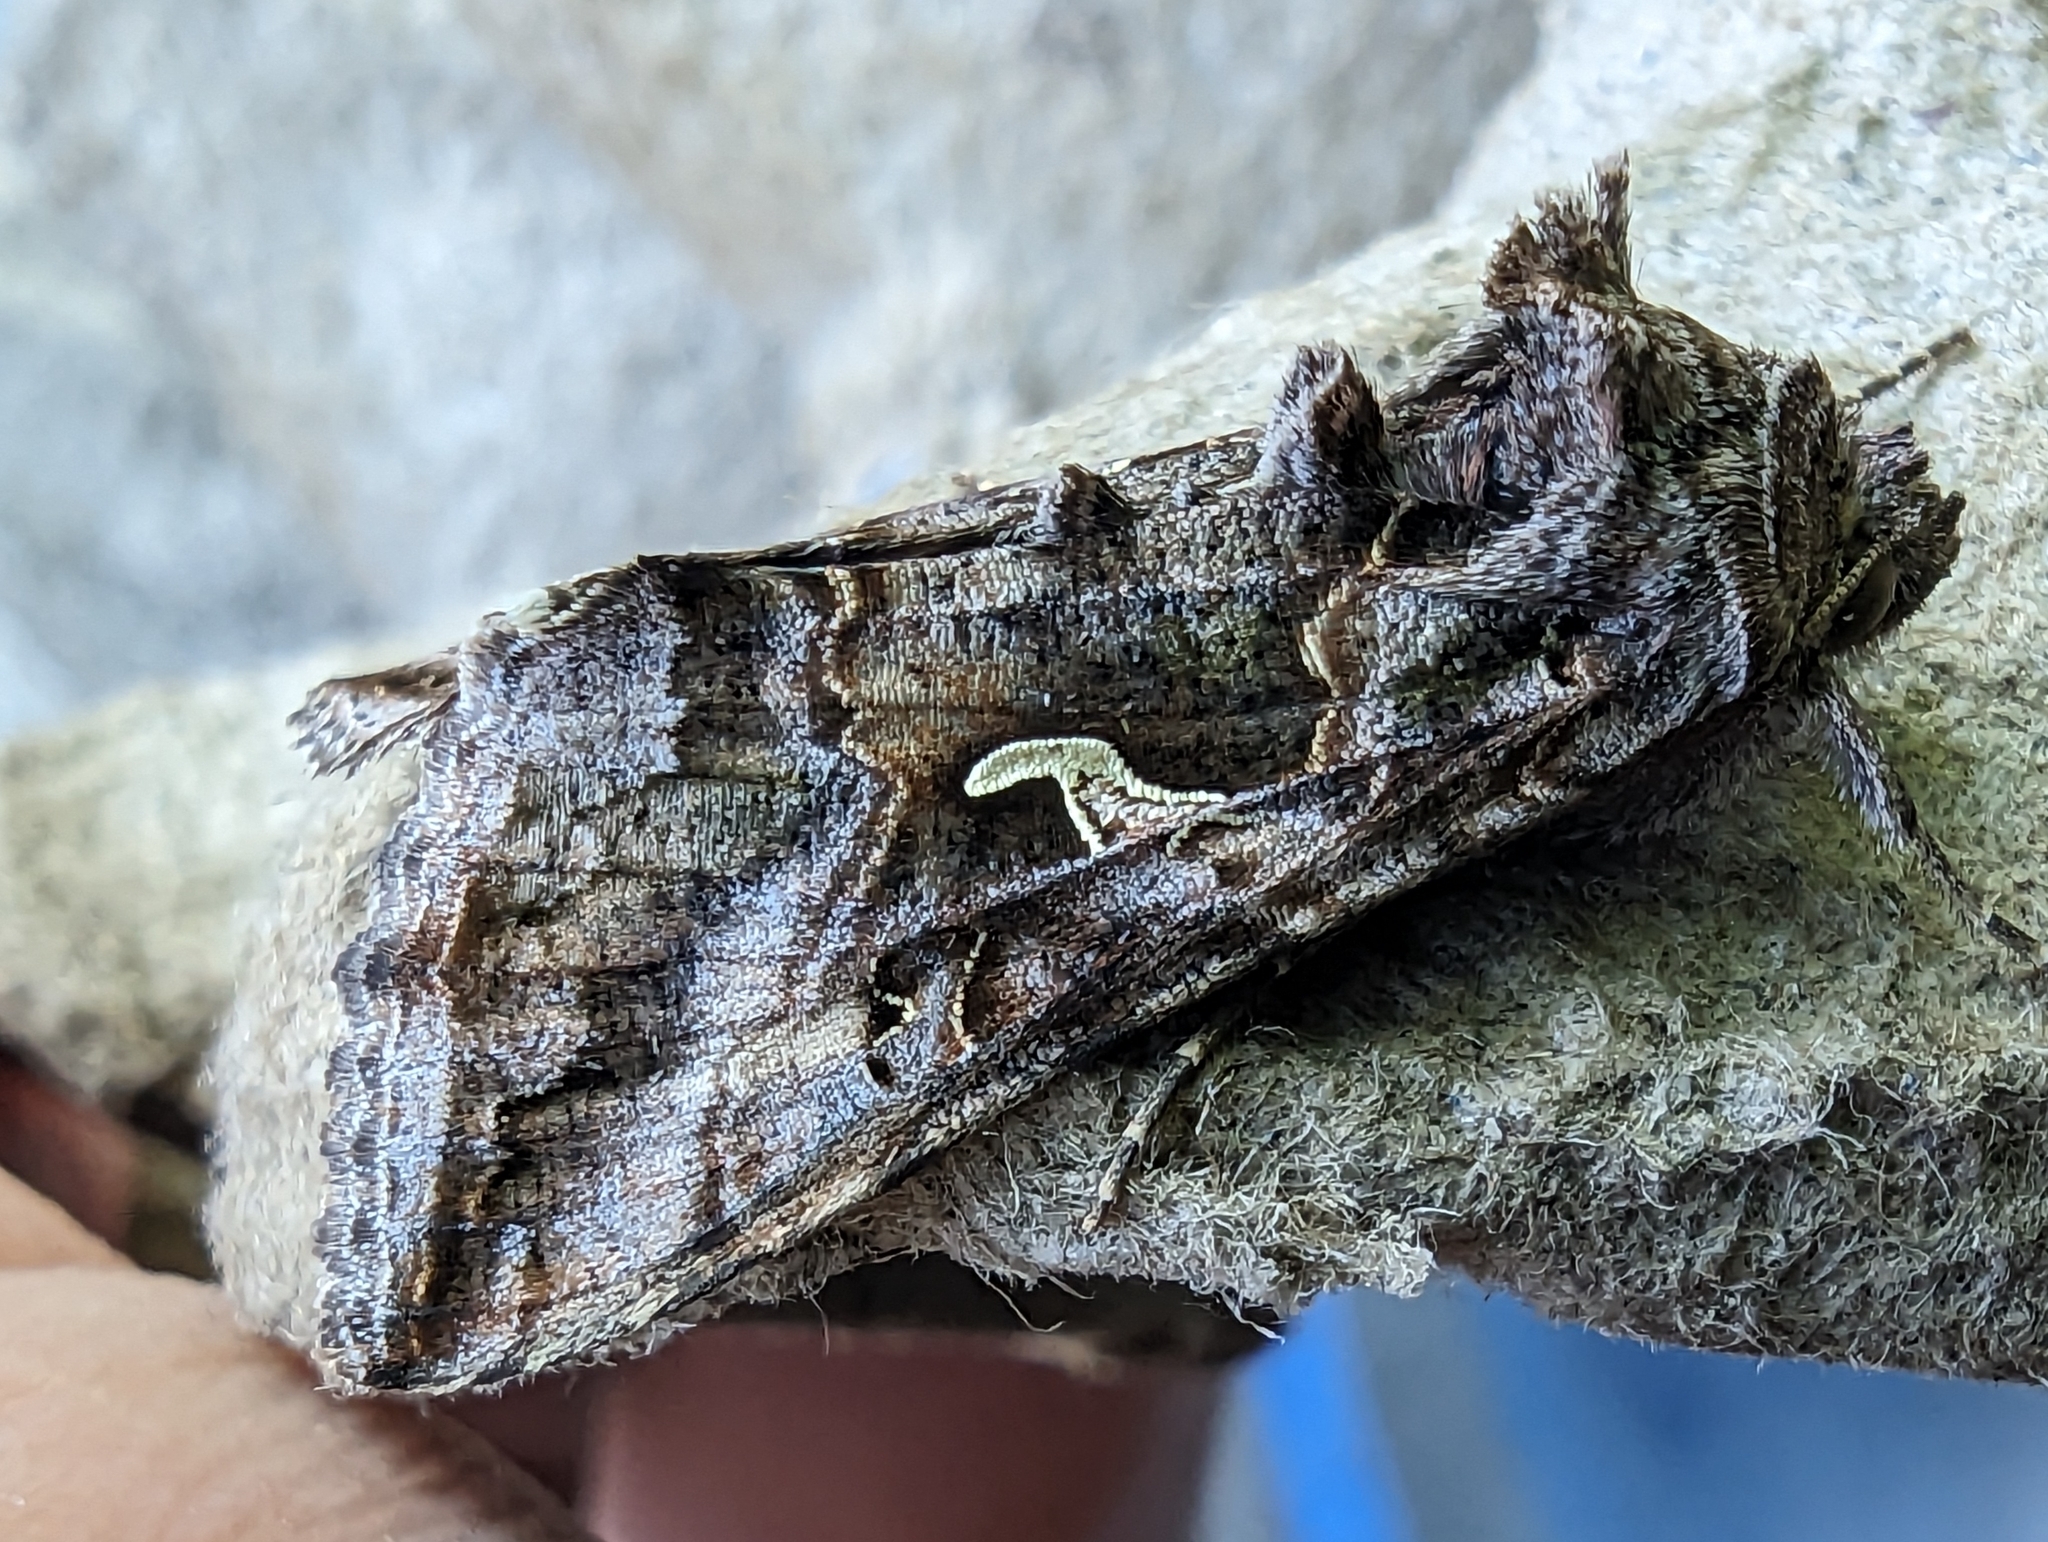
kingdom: Animalia
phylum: Arthropoda
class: Insecta
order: Lepidoptera
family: Noctuidae
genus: Autographa
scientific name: Autographa gamma
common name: Silver y
